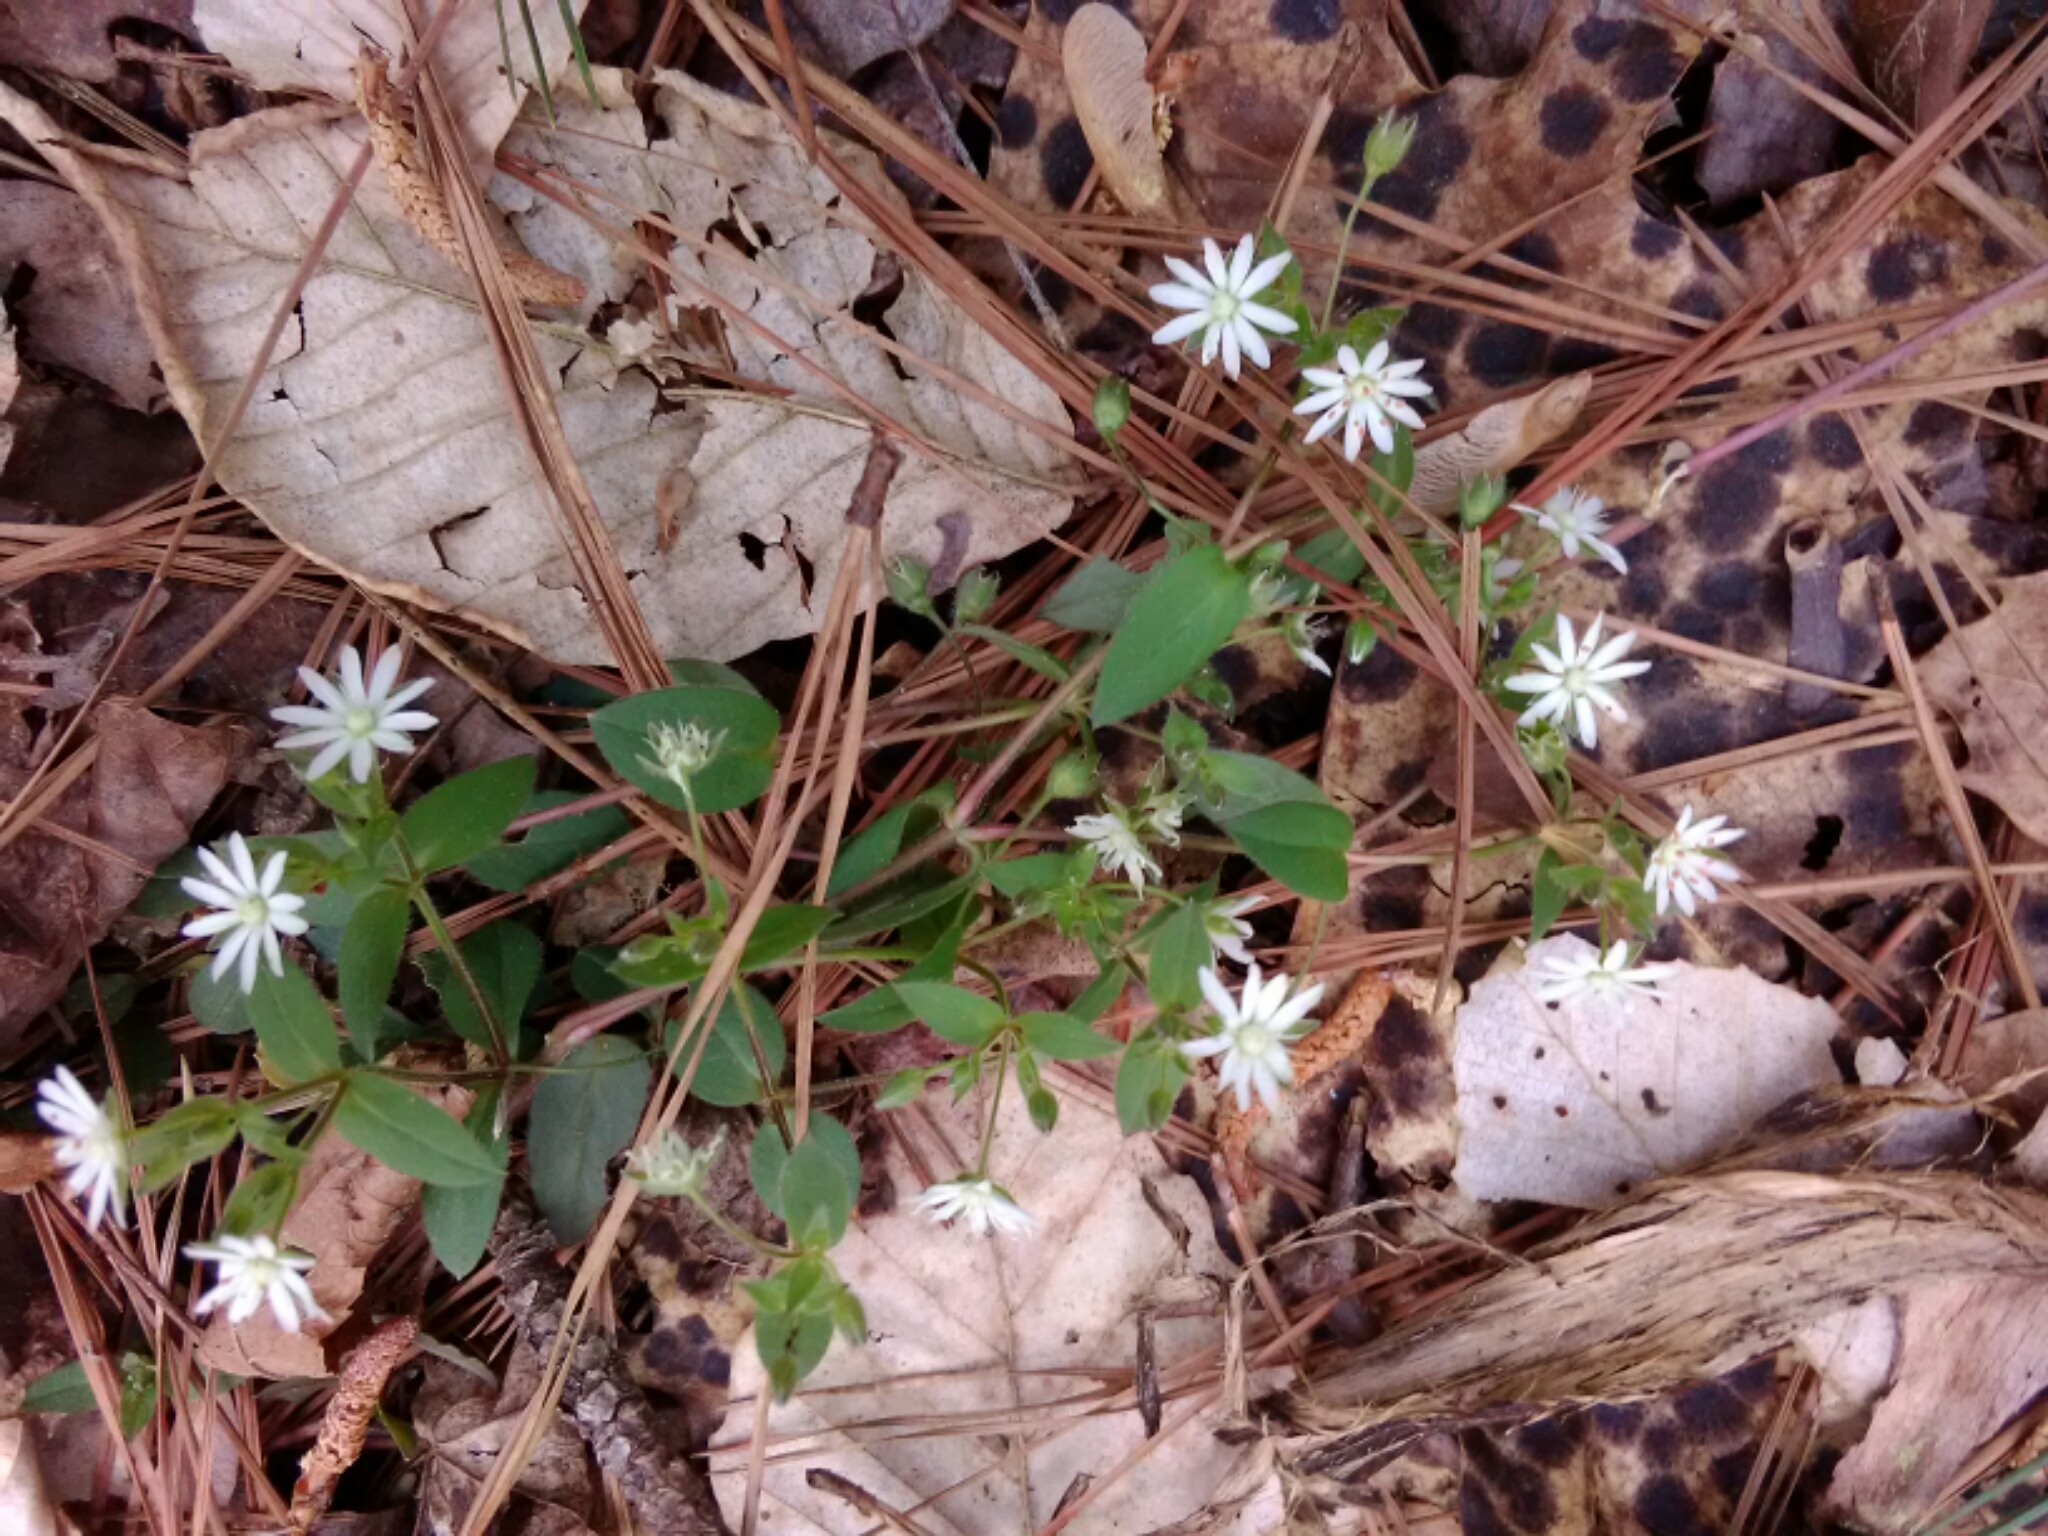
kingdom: Plantae
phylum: Tracheophyta
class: Magnoliopsida
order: Caryophyllales
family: Caryophyllaceae
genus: Stellaria
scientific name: Stellaria pubera
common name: Star chickweed
